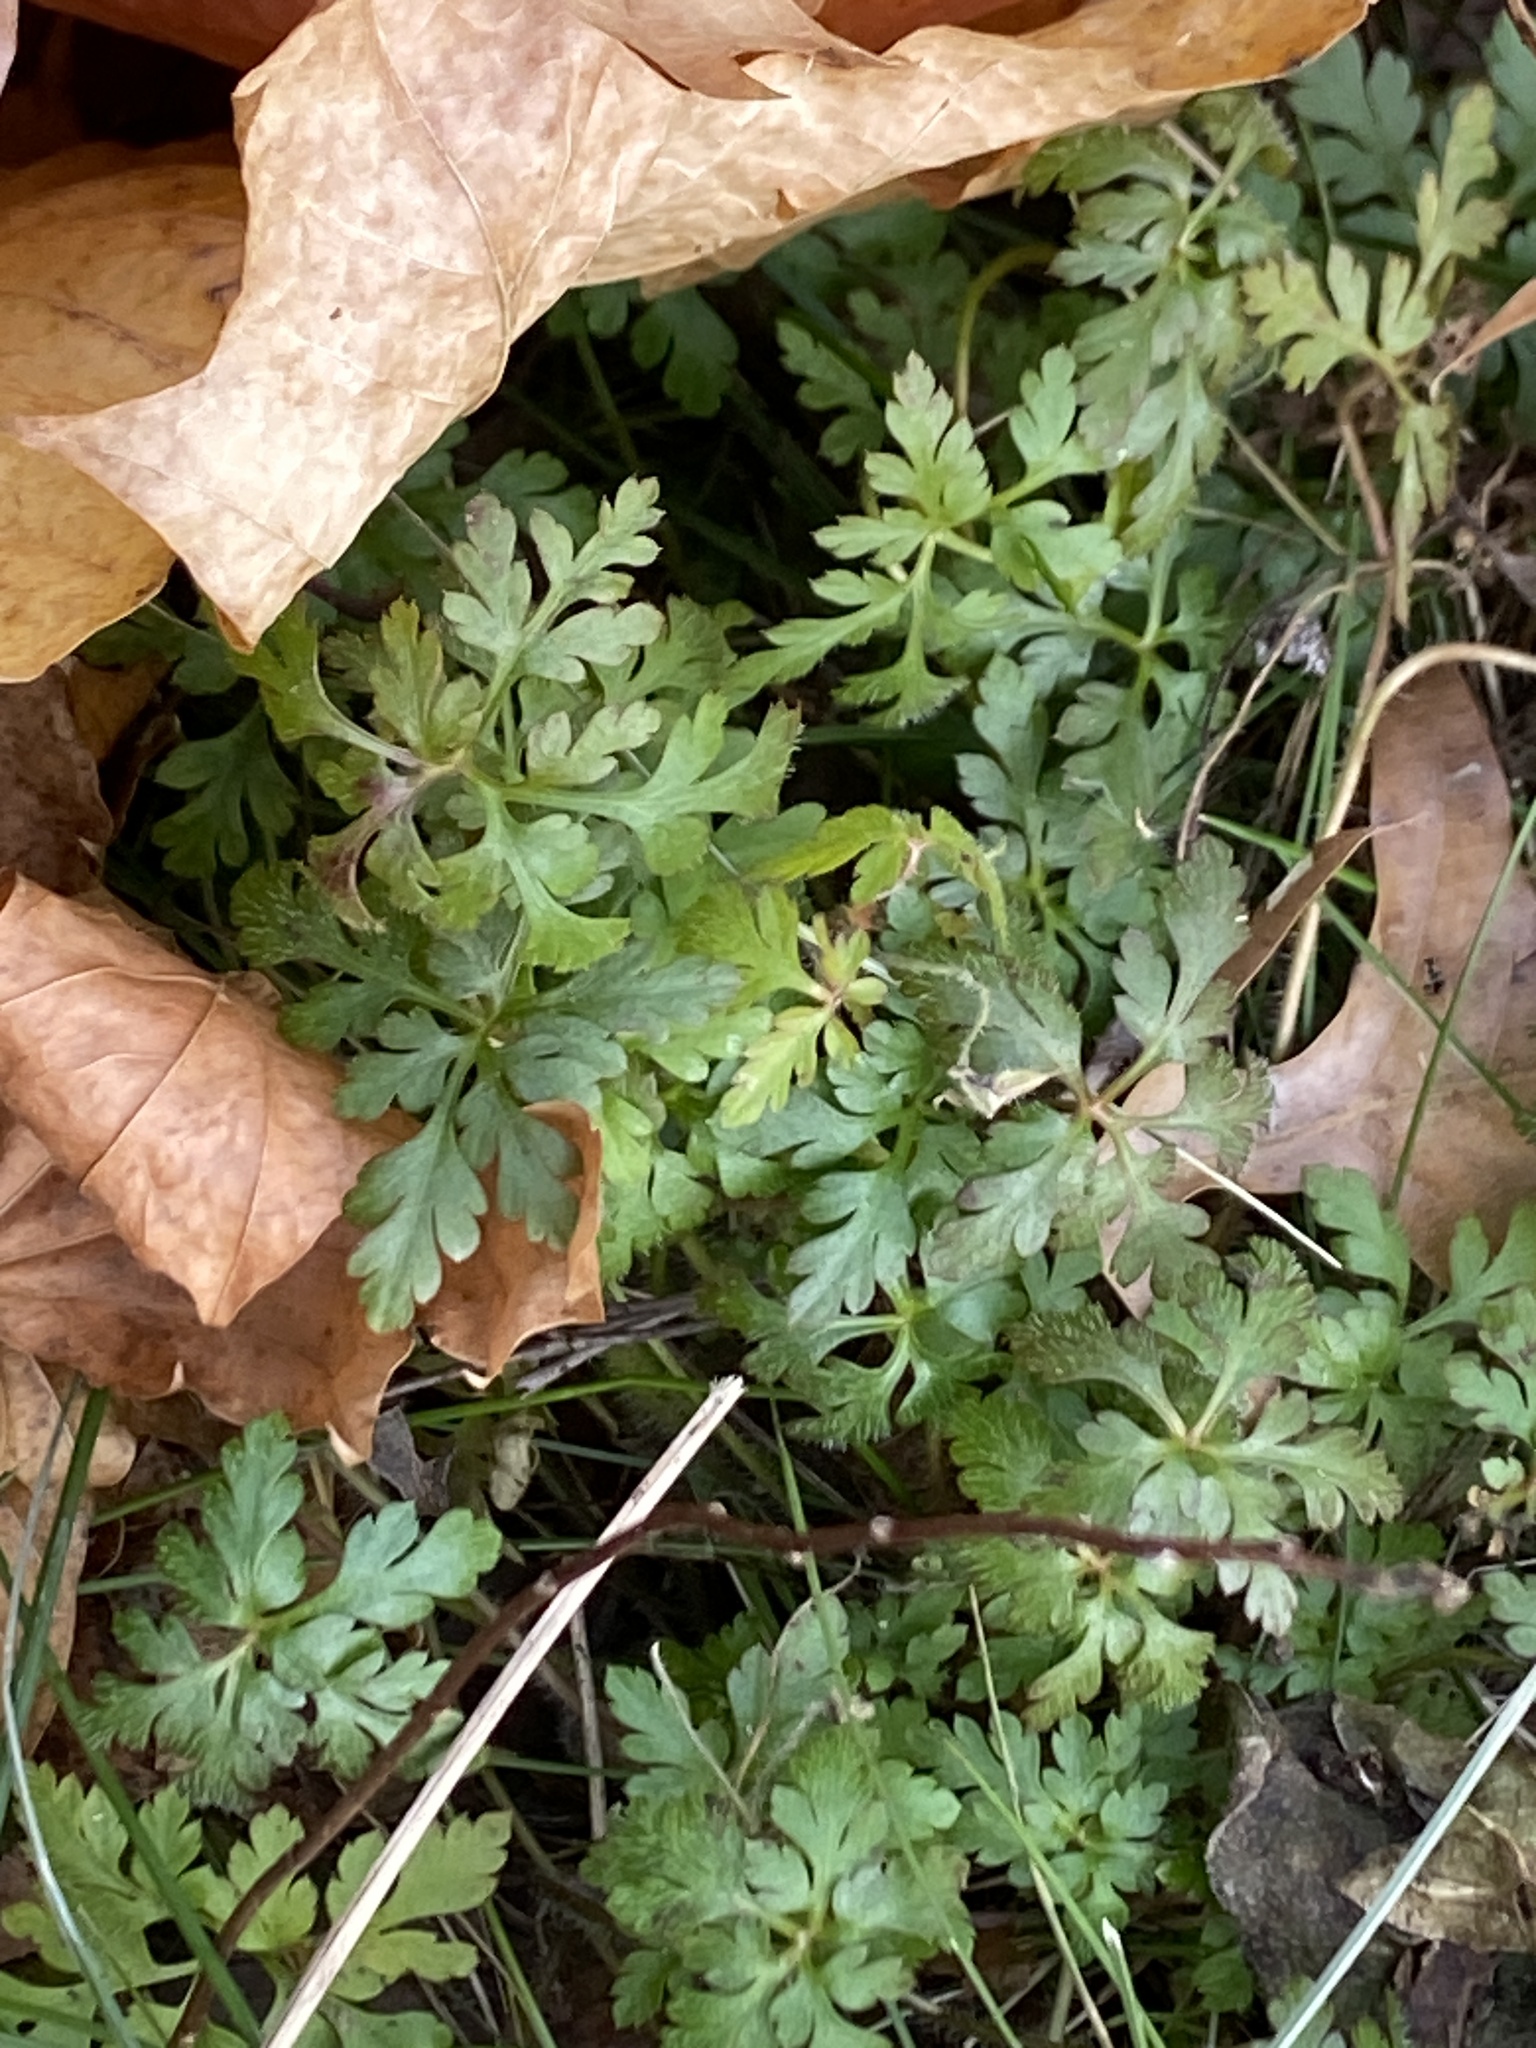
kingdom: Plantae
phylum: Tracheophyta
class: Magnoliopsida
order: Geraniales
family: Geraniaceae
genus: Geranium
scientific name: Geranium robertianum
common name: Herb-robert
